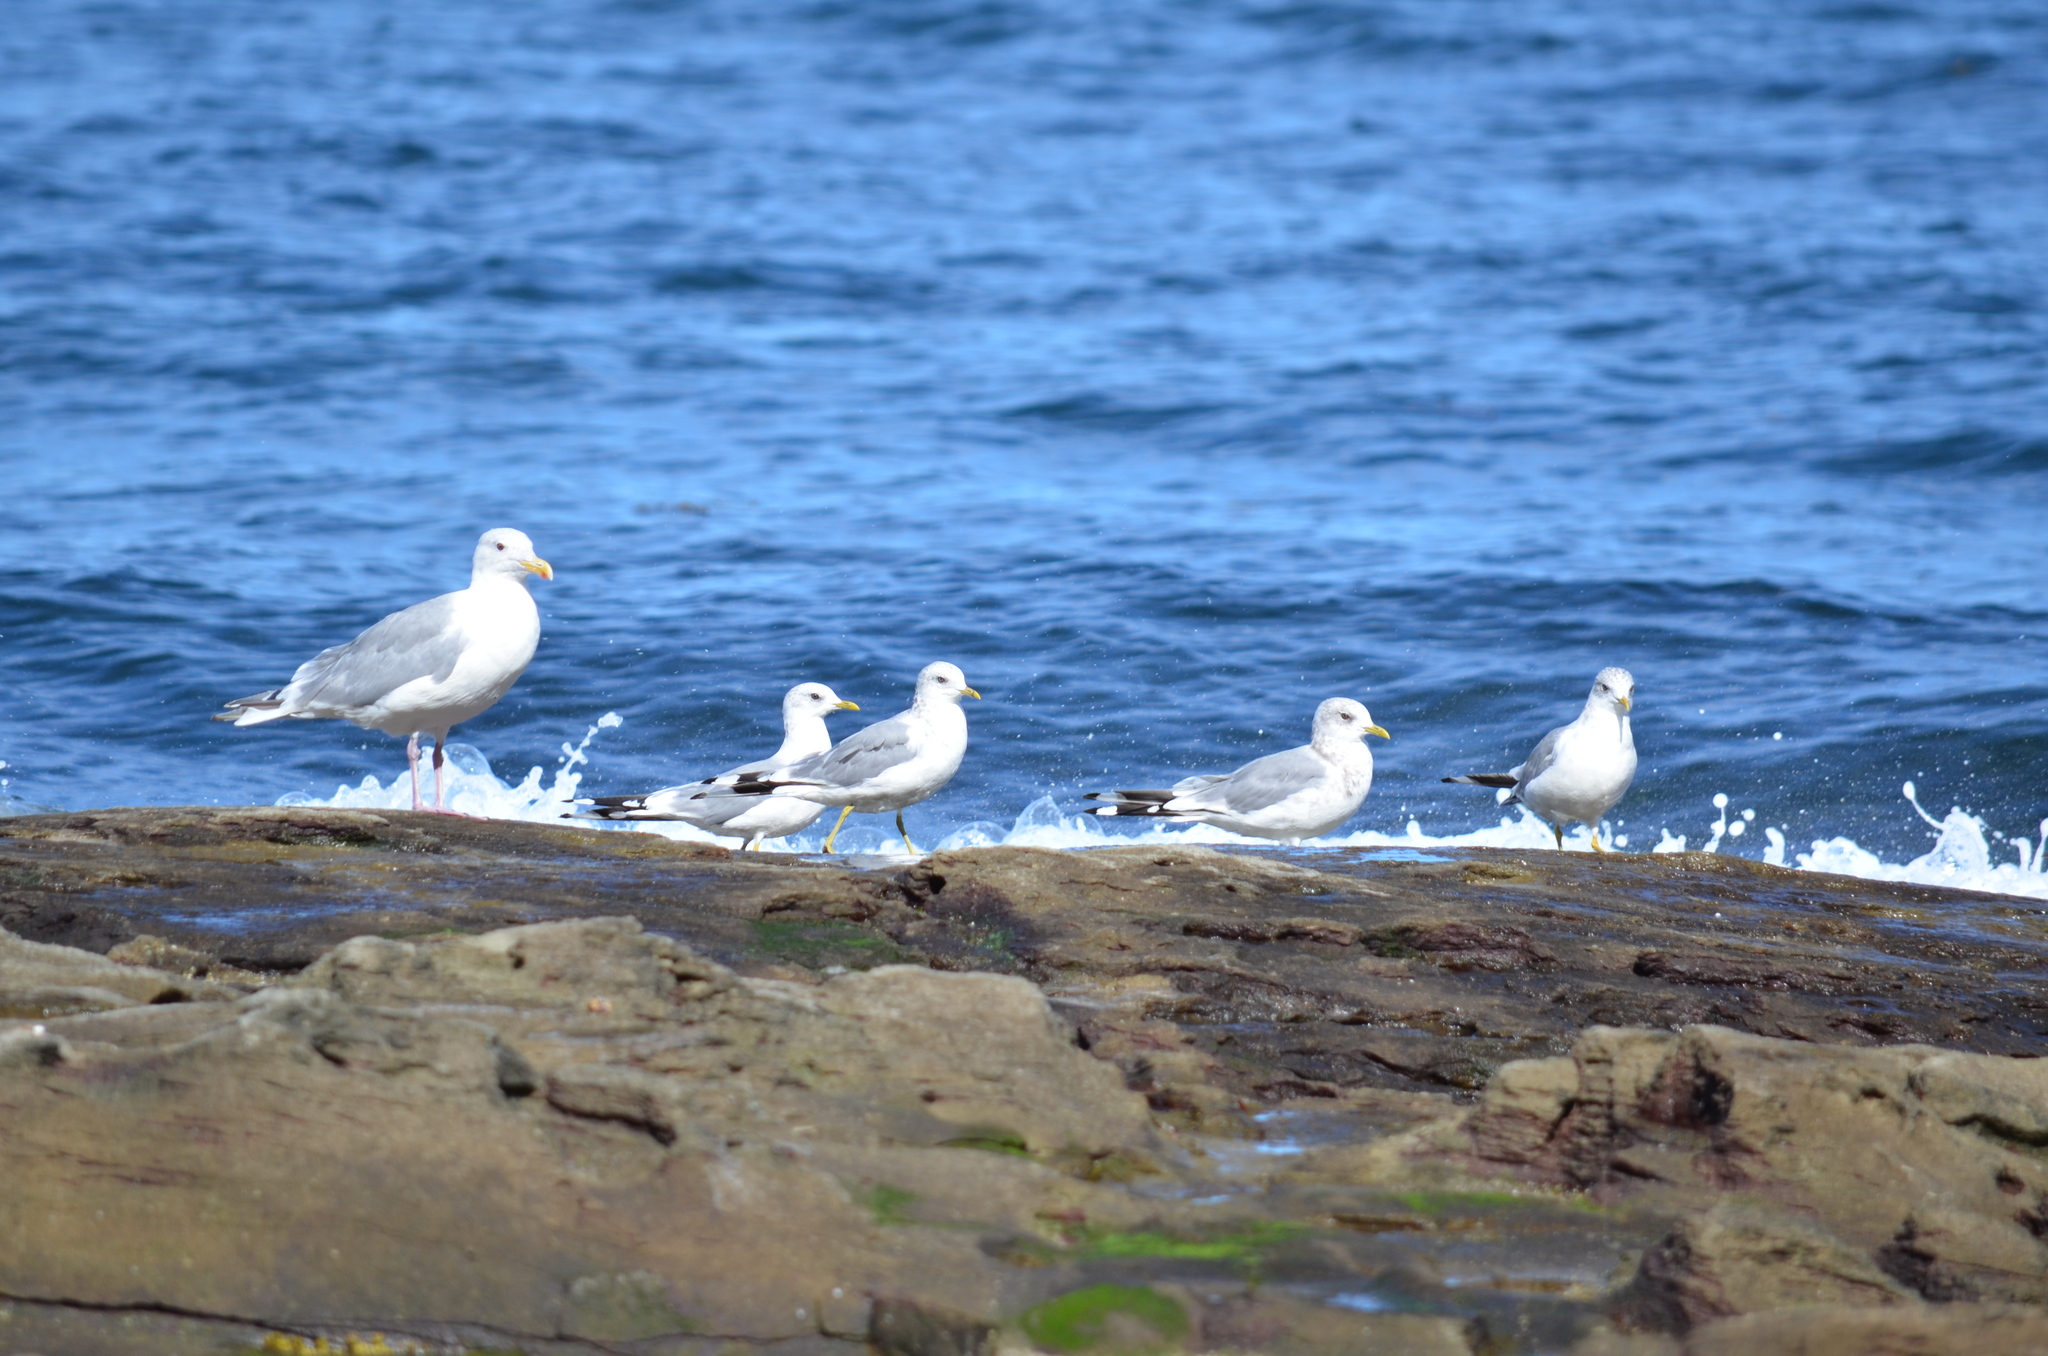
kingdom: Animalia
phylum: Chordata
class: Aves
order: Charadriiformes
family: Laridae
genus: Larus
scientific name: Larus brachyrhynchus
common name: Short-billed gull
